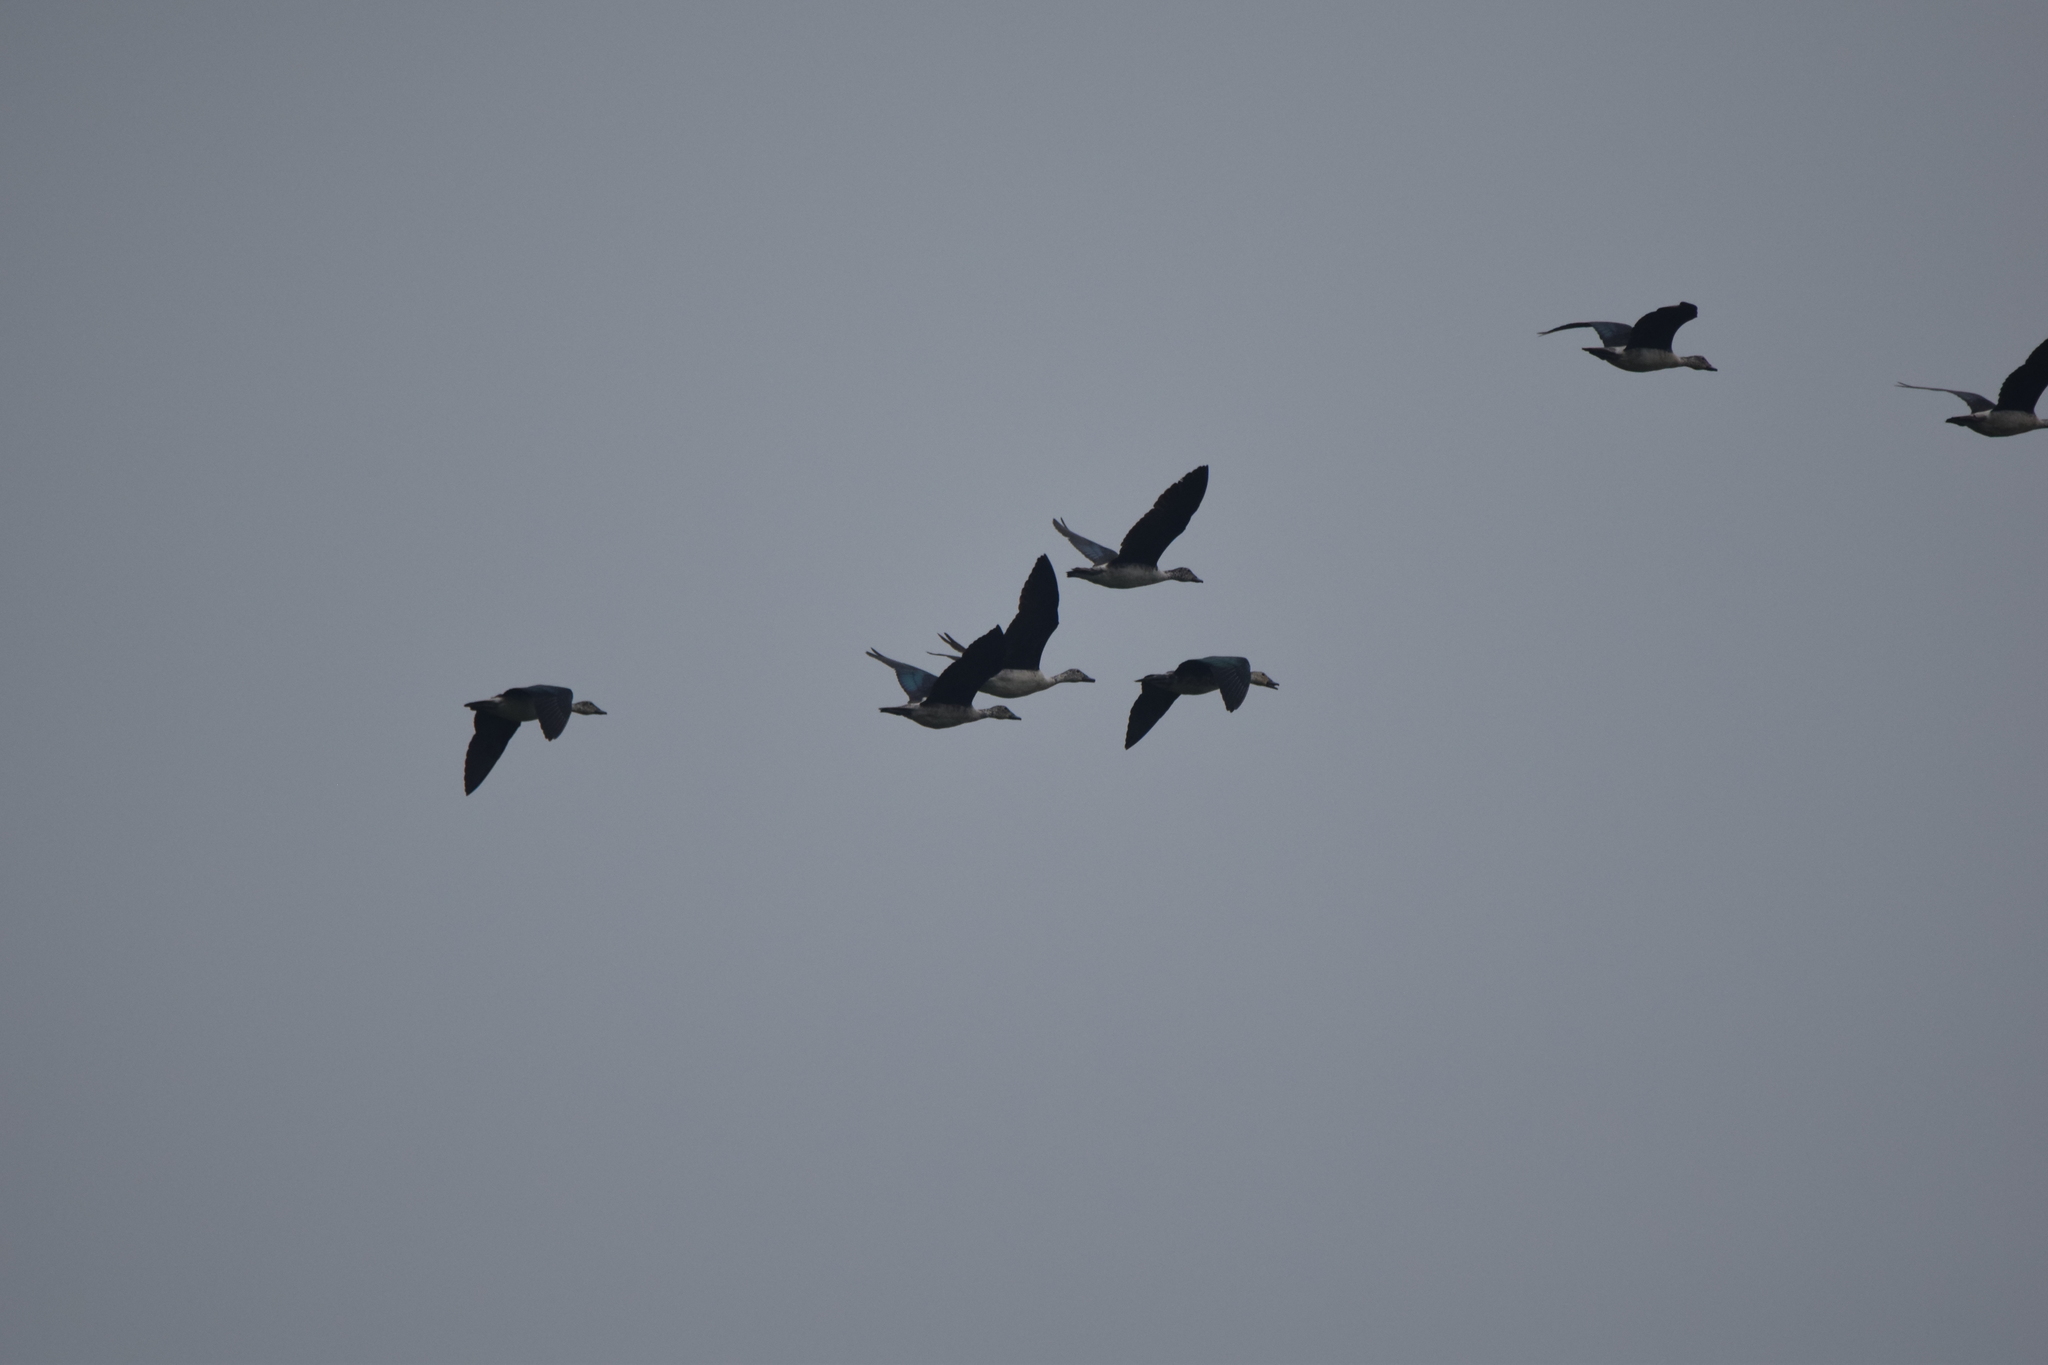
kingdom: Animalia
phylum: Chordata
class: Aves
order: Anseriformes
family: Anatidae
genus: Sarkidiornis
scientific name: Sarkidiornis melanotos
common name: Comb duck
